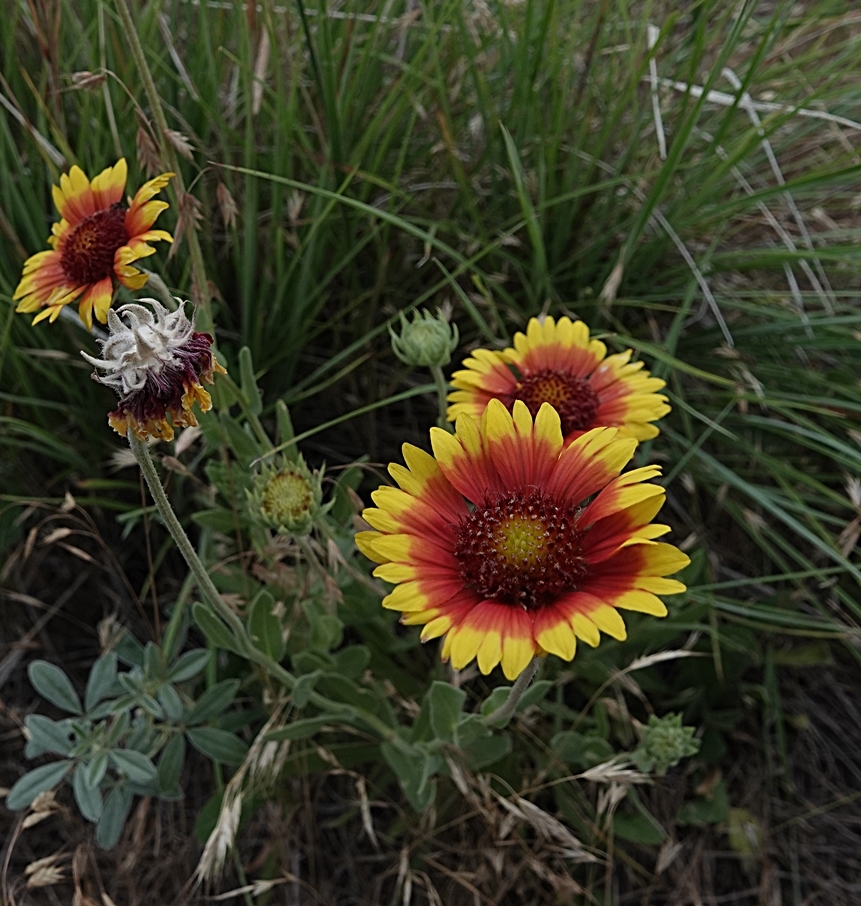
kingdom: Plantae
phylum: Tracheophyta
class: Magnoliopsida
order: Asterales
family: Asteraceae
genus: Gaillardia
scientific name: Gaillardia pulchella
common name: Firewheel
